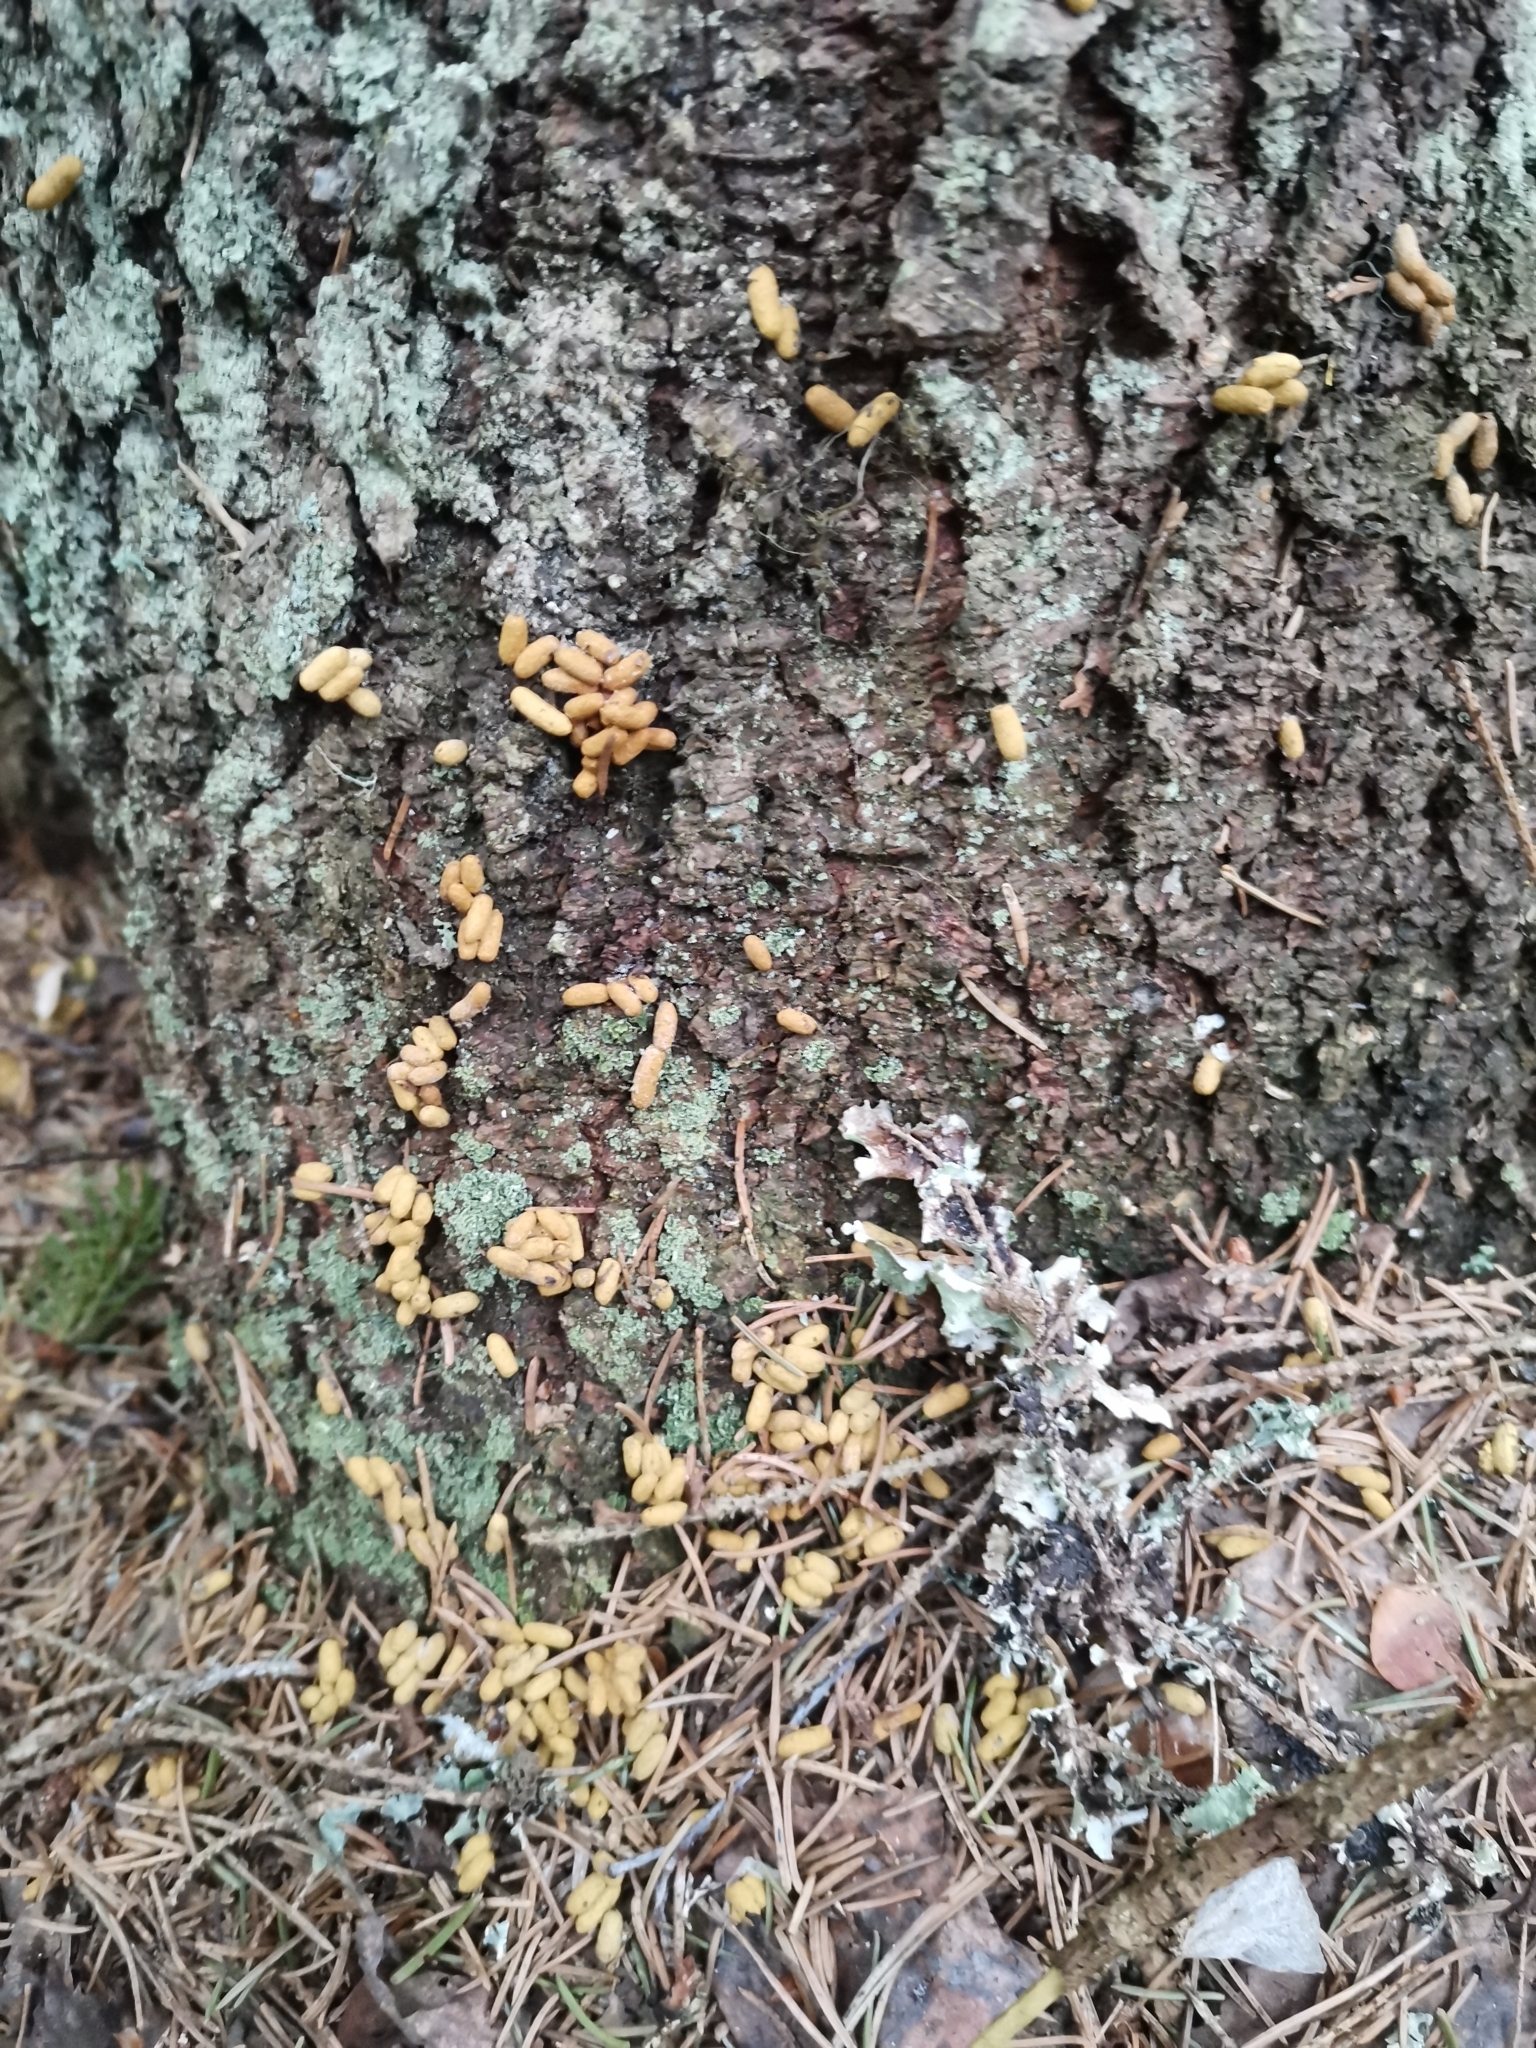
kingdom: Animalia
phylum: Chordata
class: Mammalia
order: Rodentia
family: Sciuridae
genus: Pteromys
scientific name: Pteromys volans
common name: Siberian flying squirrel
